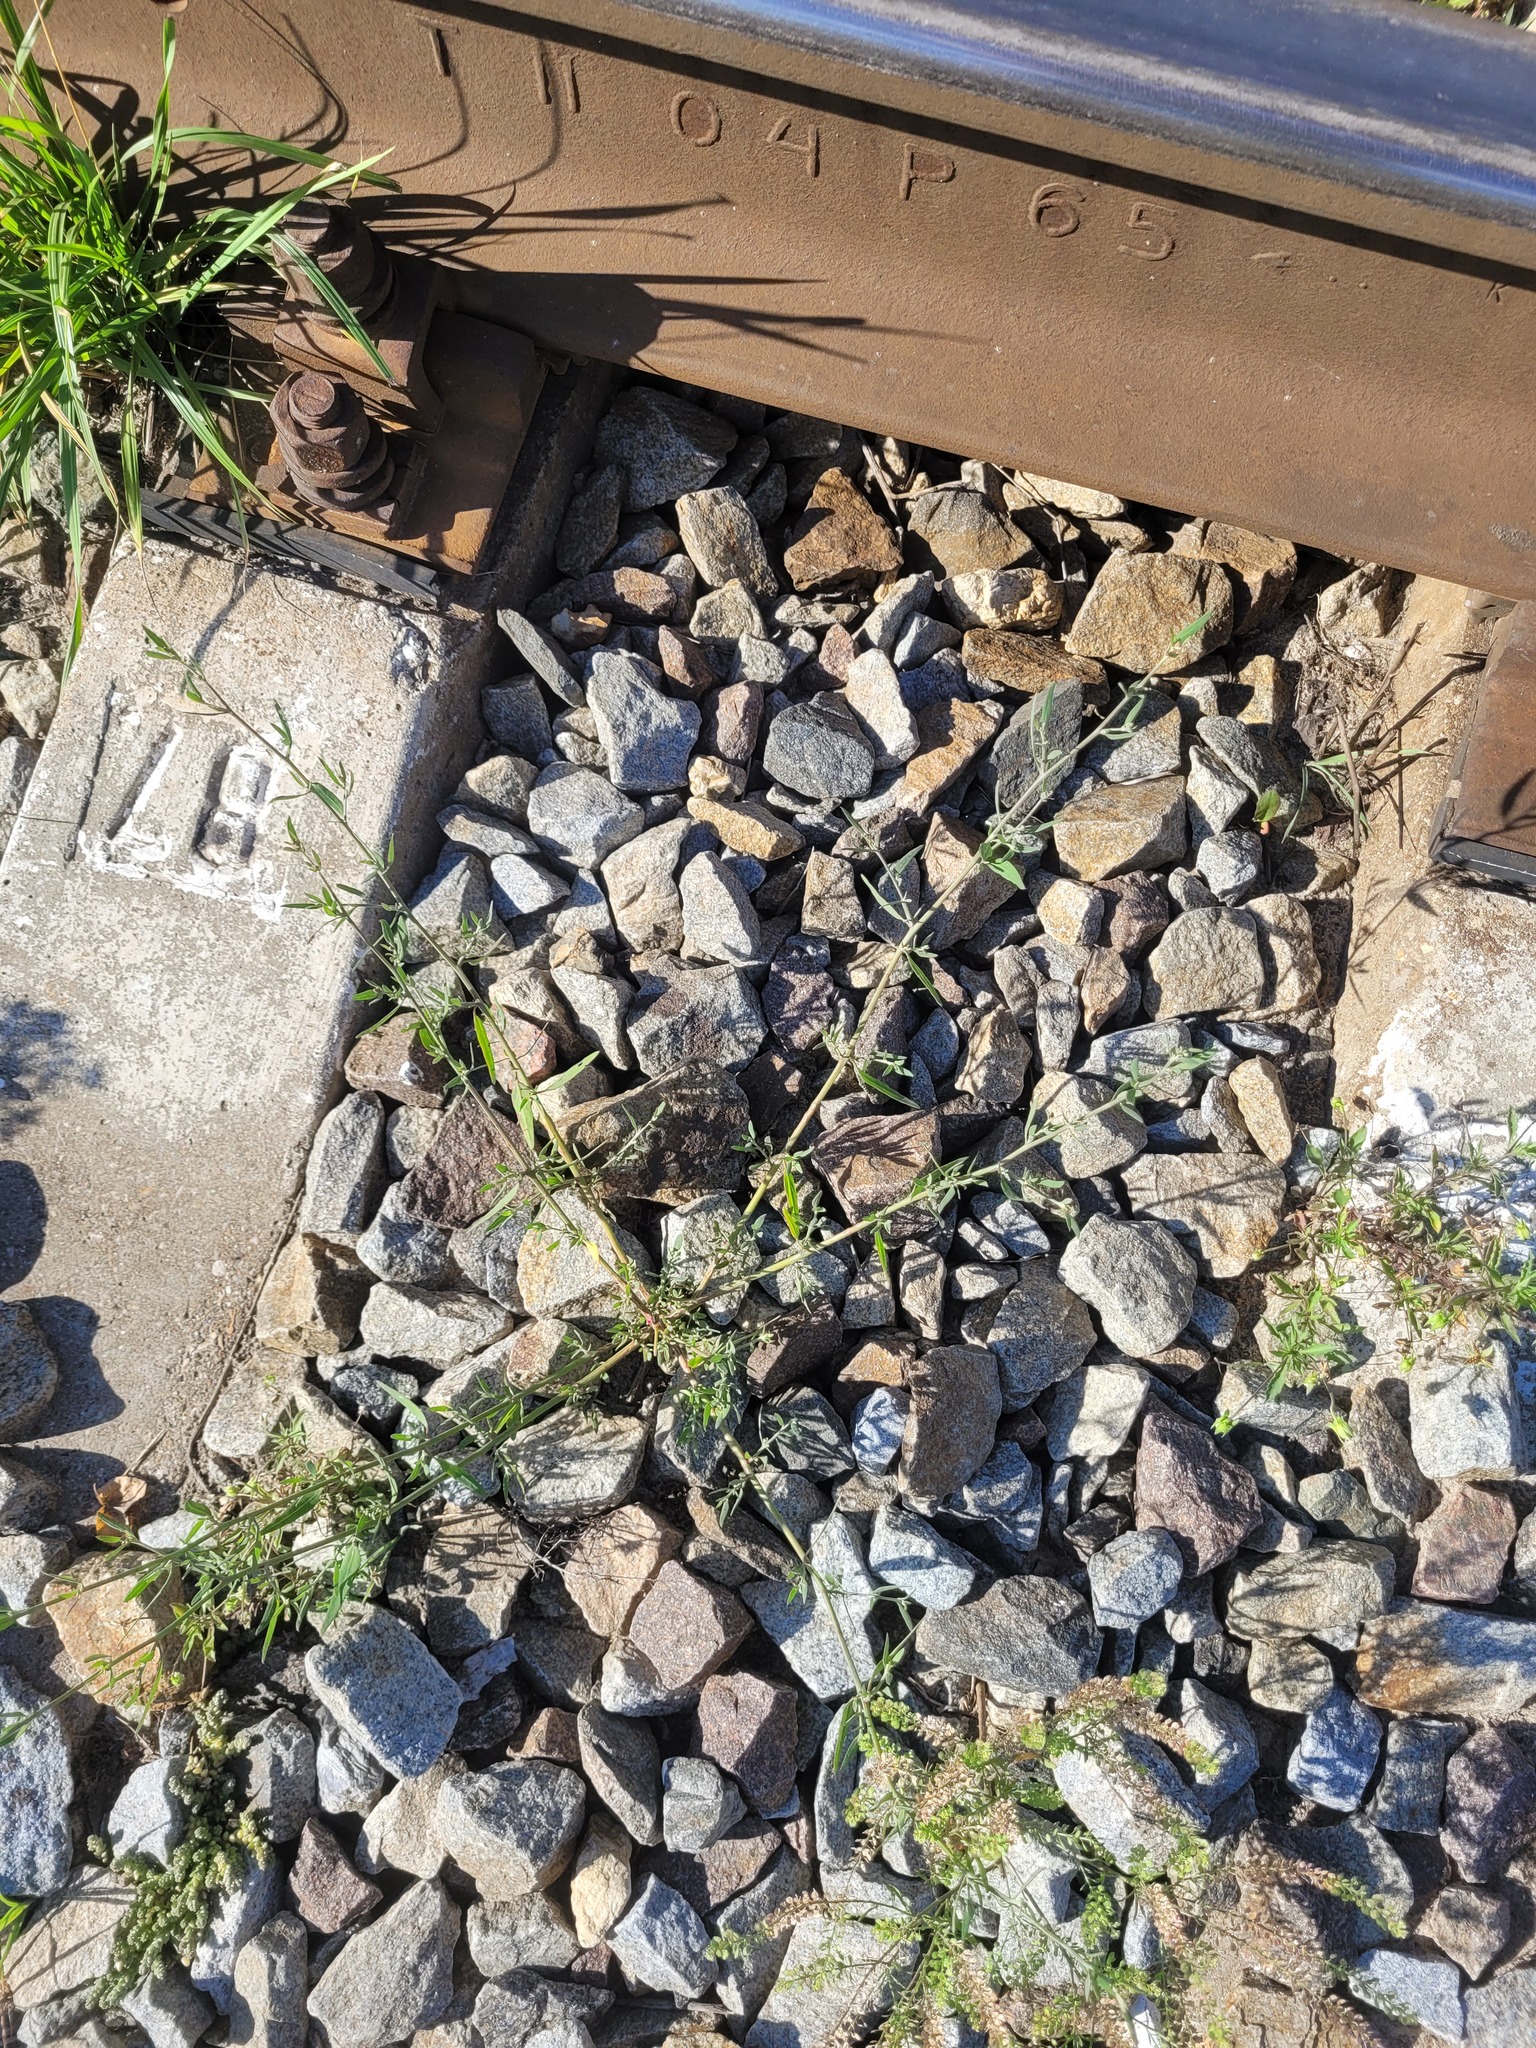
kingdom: Plantae
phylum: Tracheophyta
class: Magnoliopsida
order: Caryophyllales
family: Amaranthaceae
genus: Atriplex
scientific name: Atriplex patula
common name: Common orache
